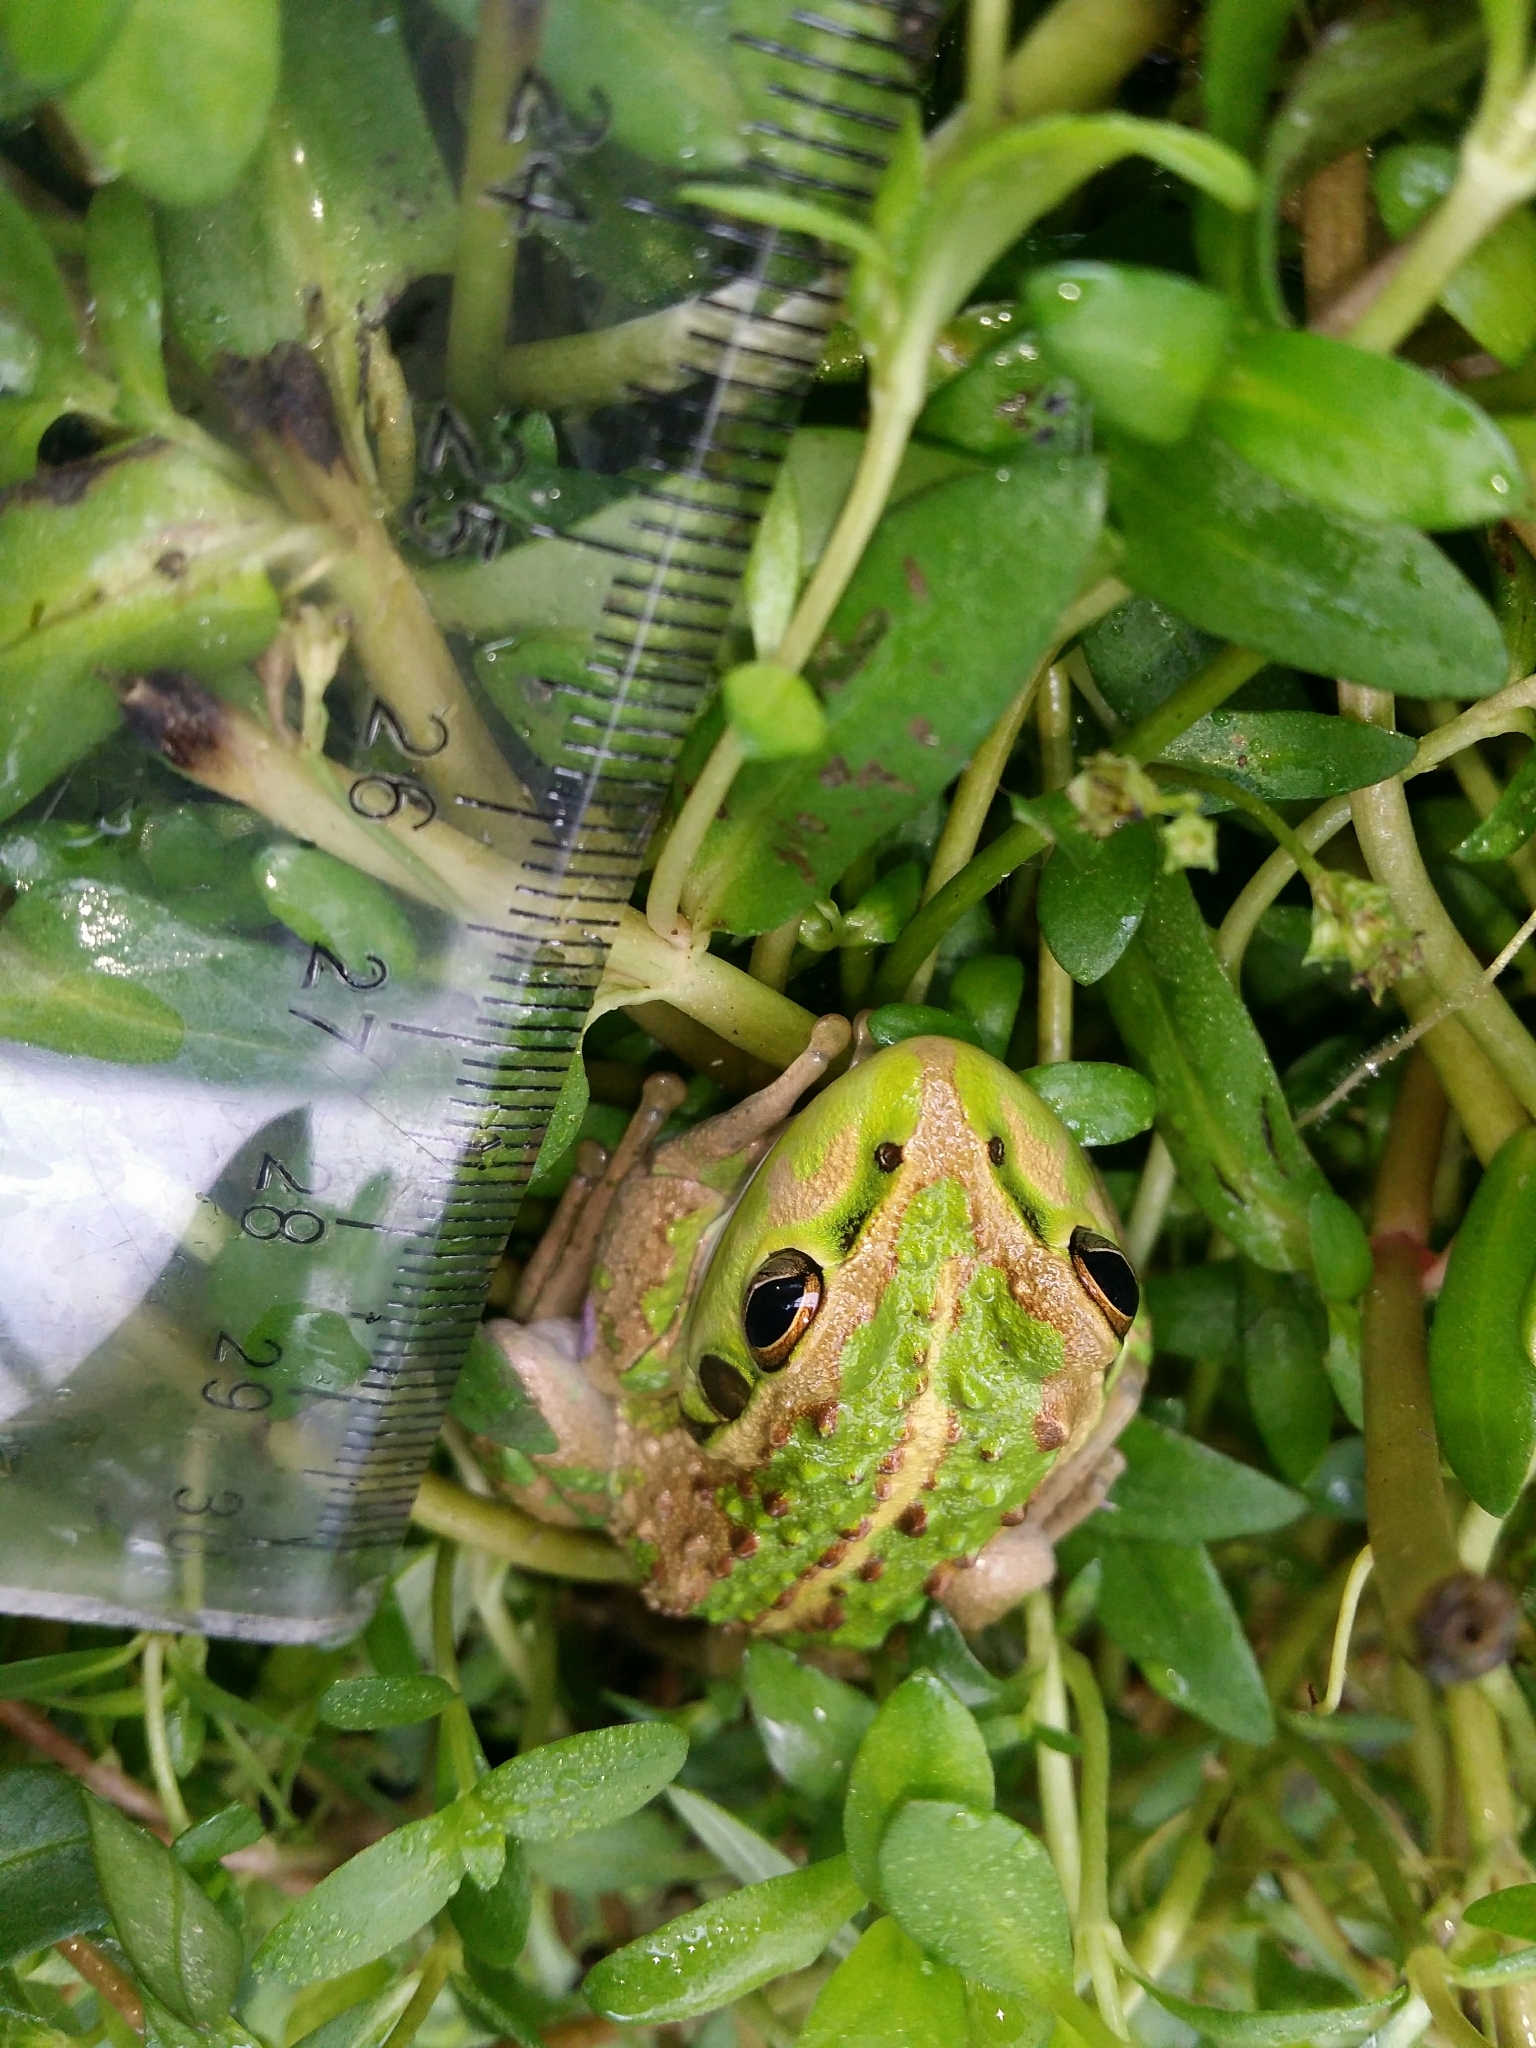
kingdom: Animalia
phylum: Chordata
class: Amphibia
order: Anura
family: Pelodryadidae
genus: Ranoidea
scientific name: Ranoidea moorei
